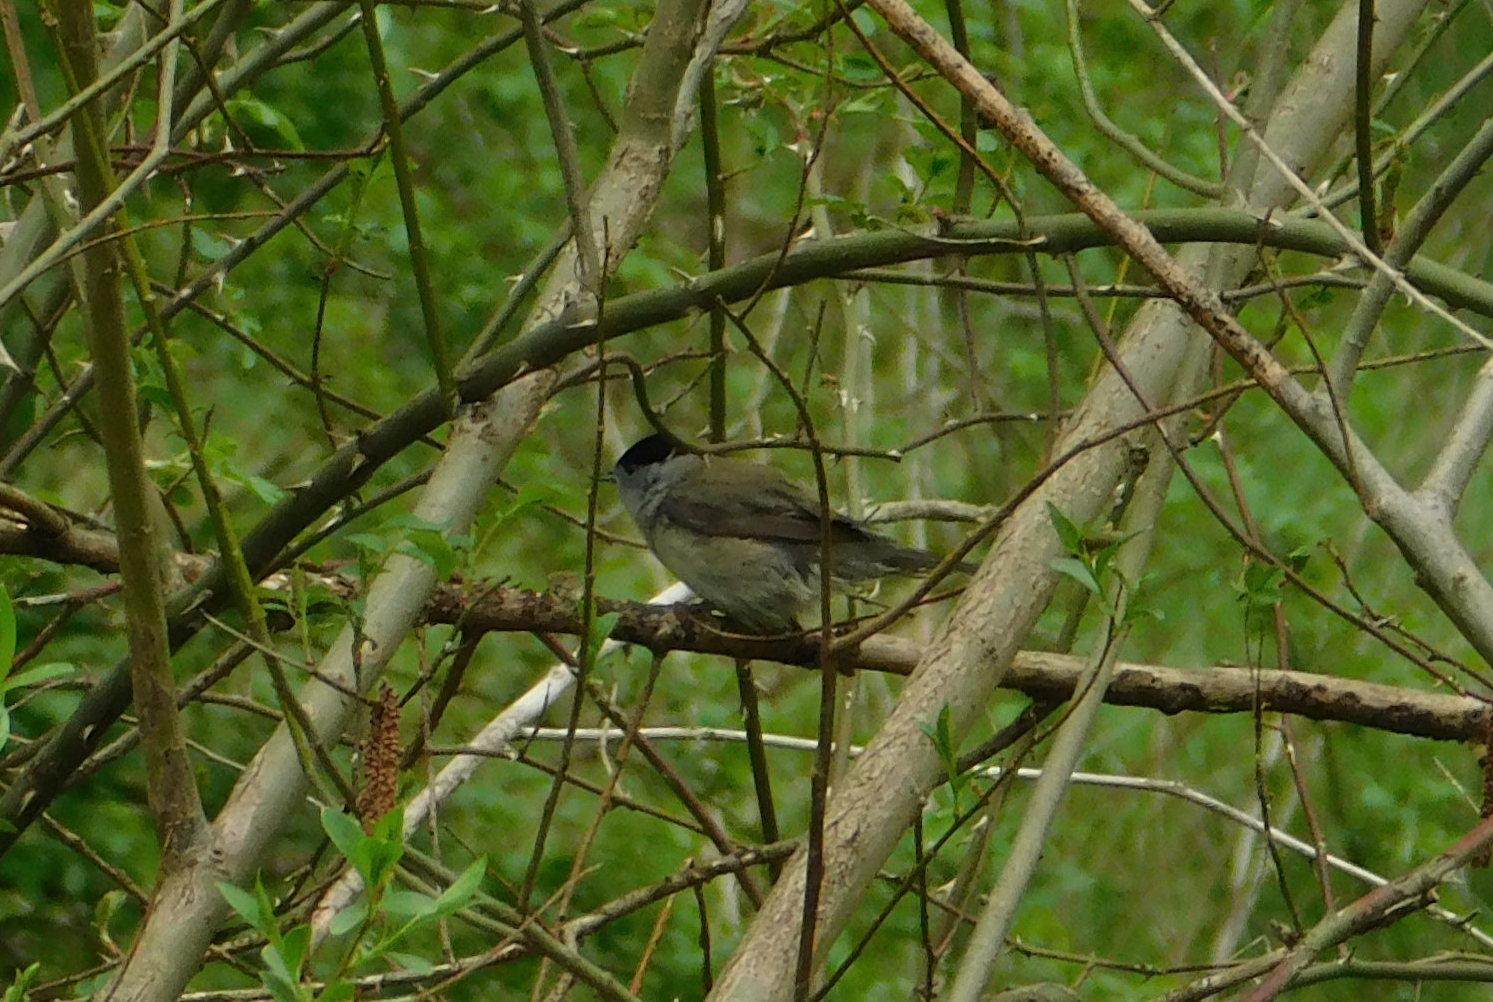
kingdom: Animalia
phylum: Chordata
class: Aves
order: Passeriformes
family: Sylviidae
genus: Sylvia
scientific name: Sylvia atricapilla
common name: Eurasian blackcap
